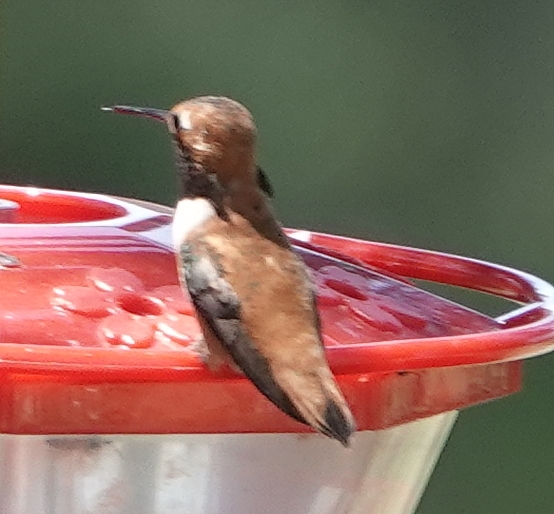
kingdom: Animalia
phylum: Chordata
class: Aves
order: Apodiformes
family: Trochilidae
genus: Selasphorus
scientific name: Selasphorus rufus
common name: Rufous hummingbird
